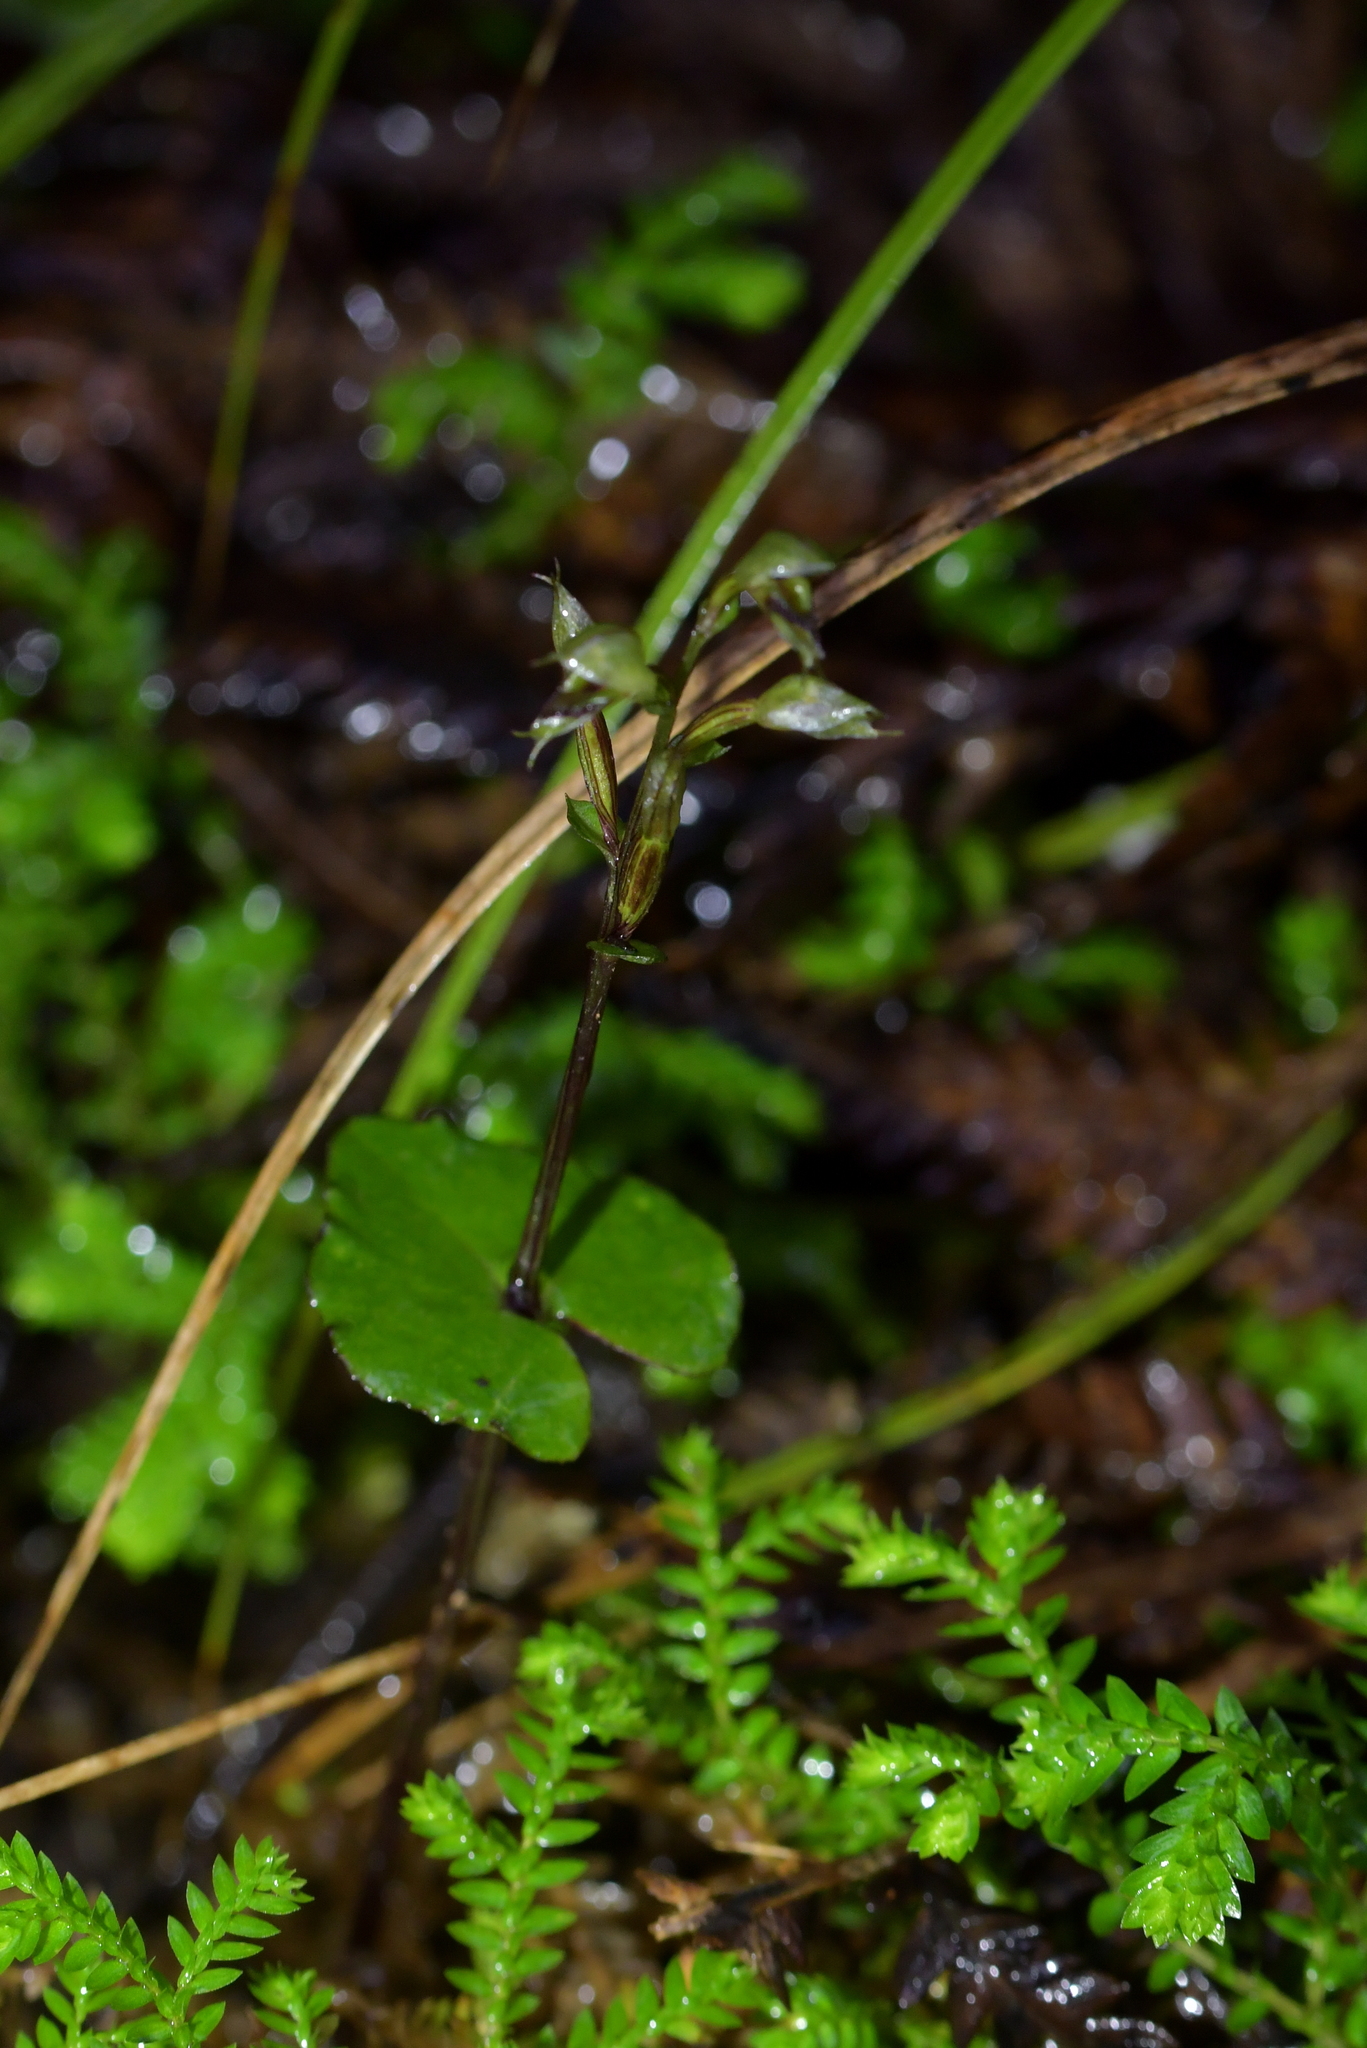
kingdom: Plantae
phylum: Tracheophyta
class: Liliopsida
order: Asparagales
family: Orchidaceae
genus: Acianthus
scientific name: Acianthus sinclairii
